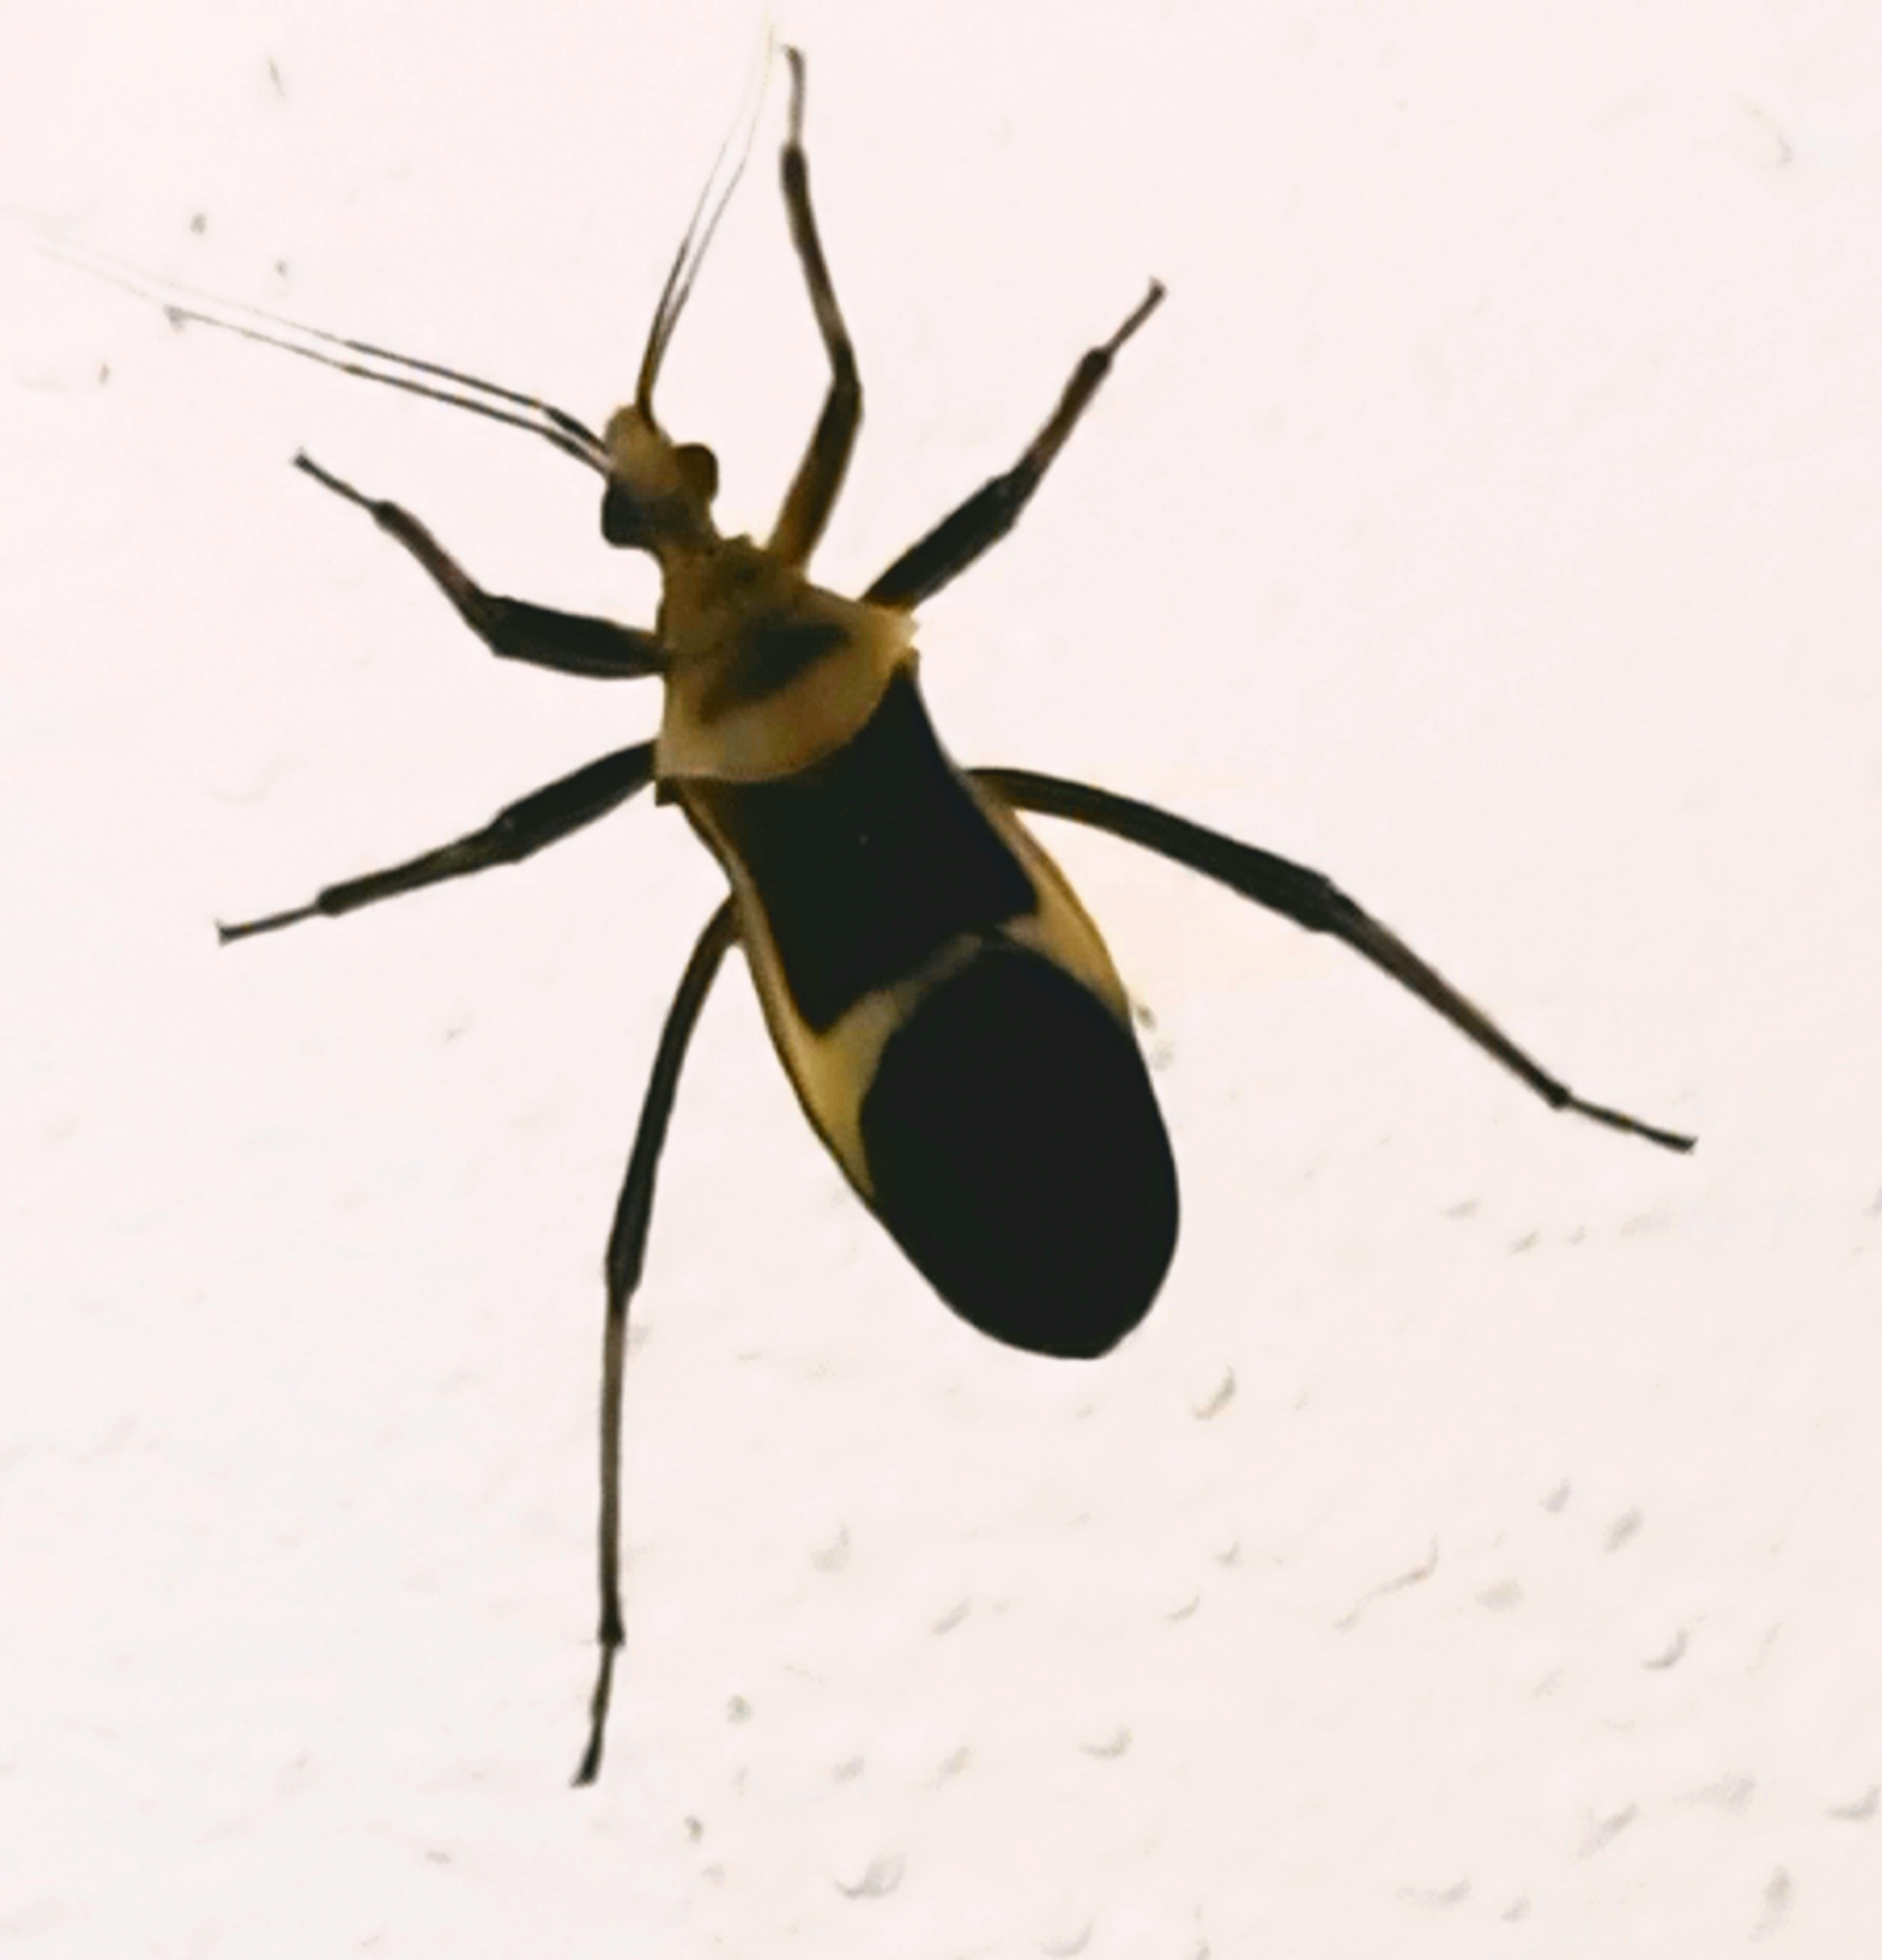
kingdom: Animalia
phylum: Arthropoda
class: Insecta
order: Hemiptera
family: Reduviidae
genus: Zelurus
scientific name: Zelurus circumcinctus
